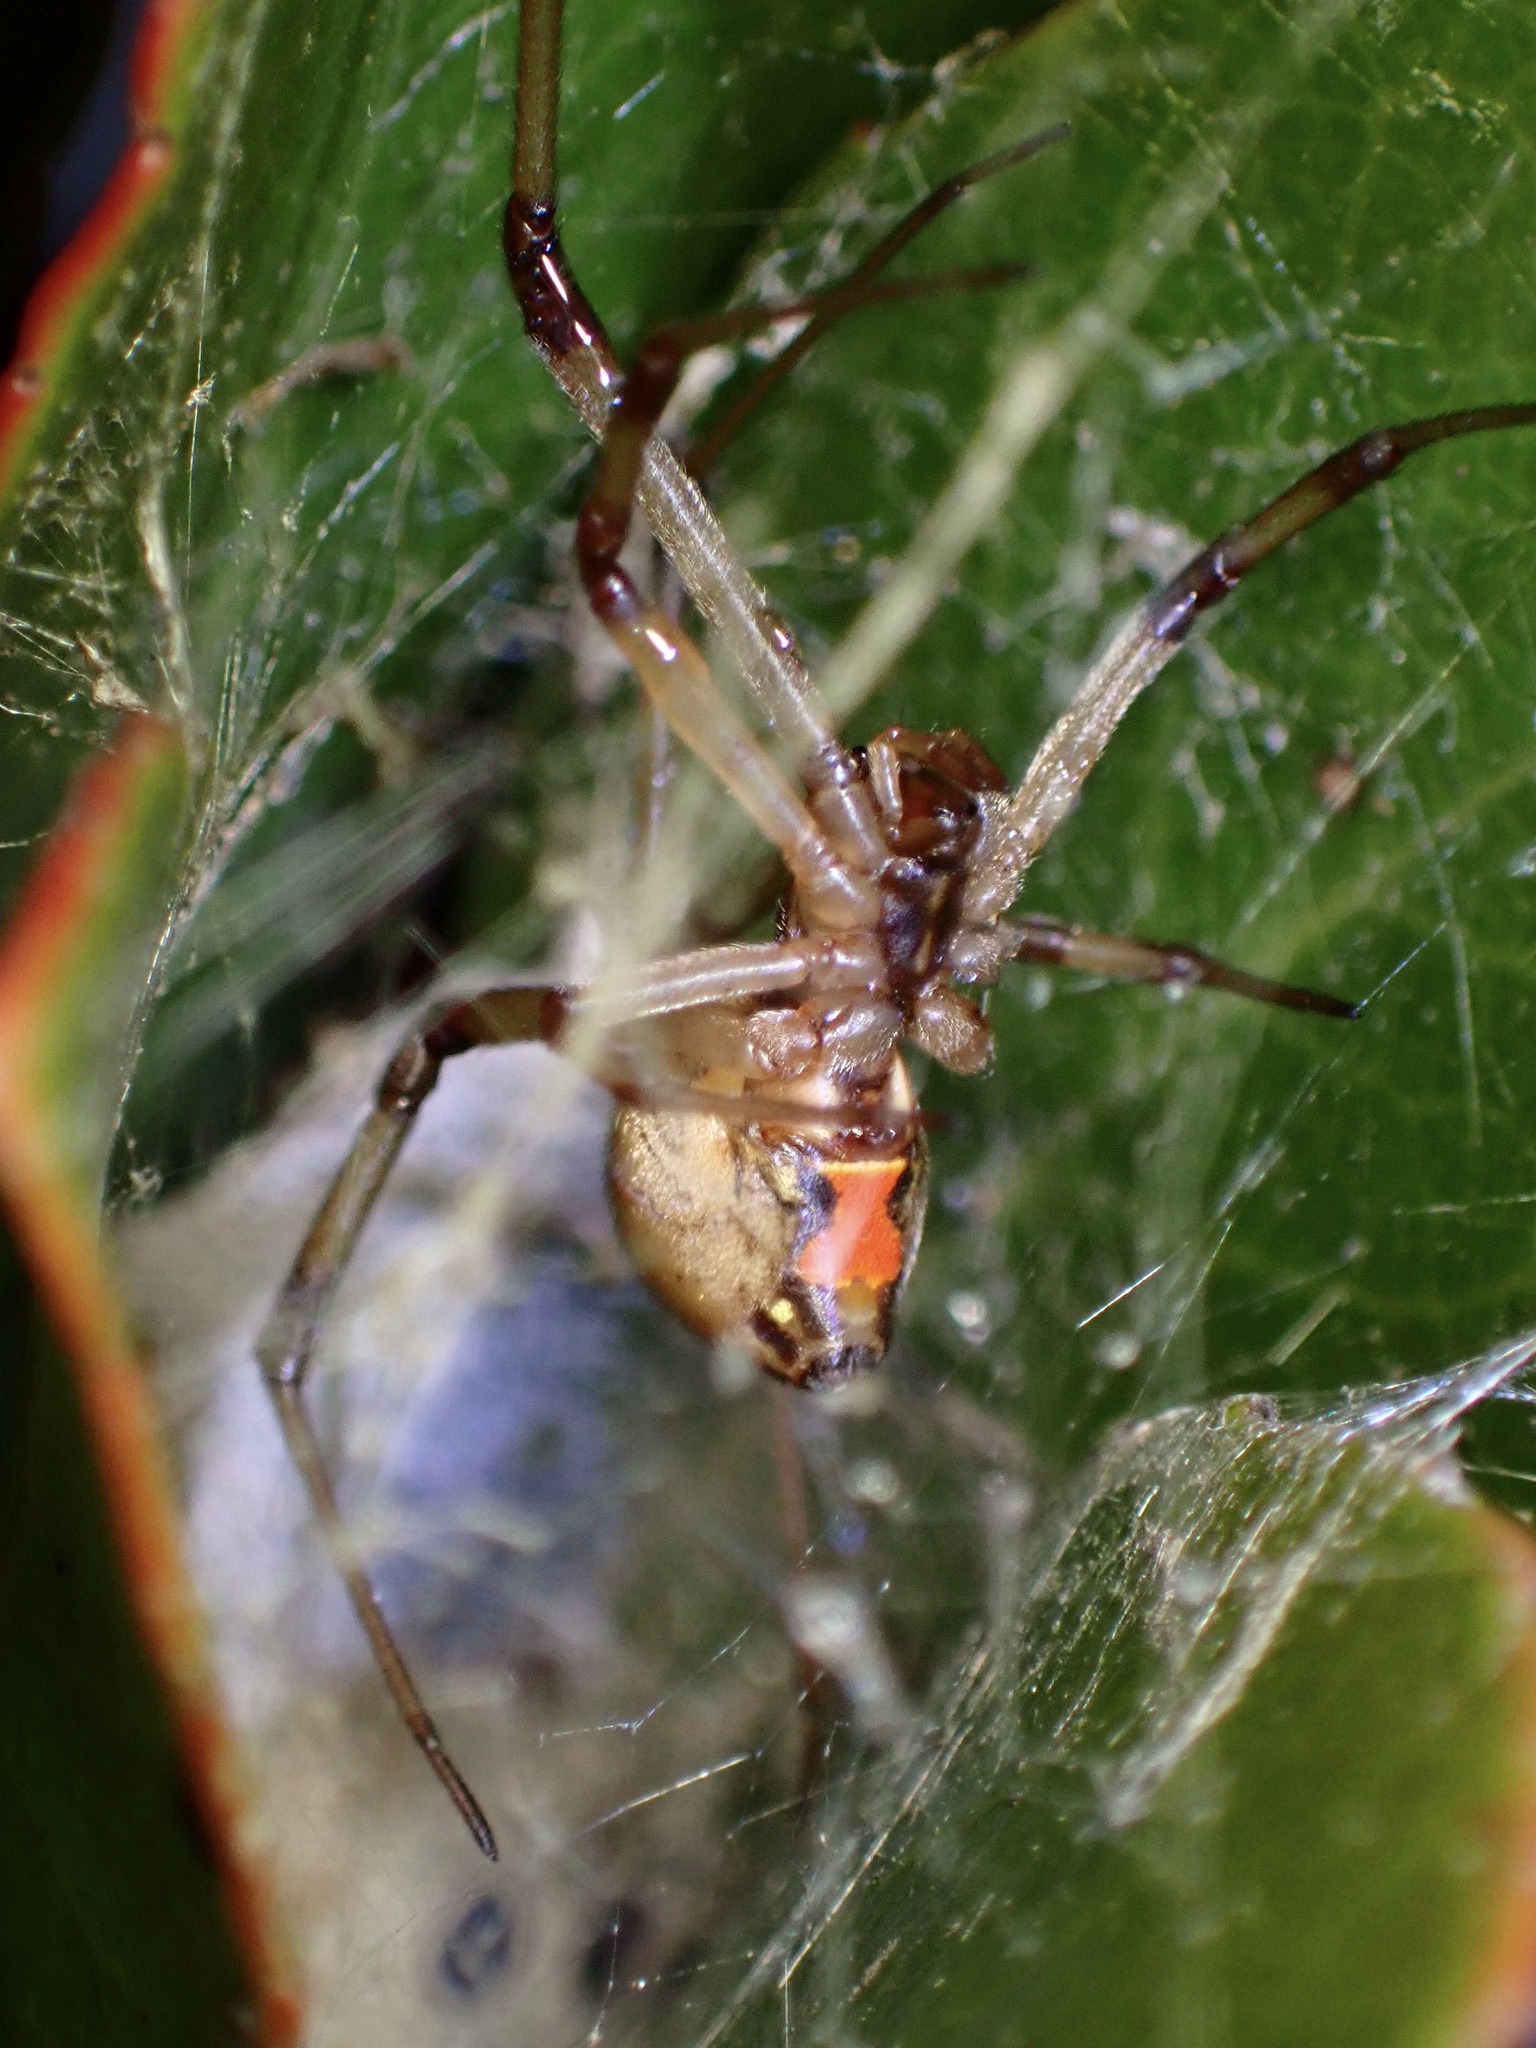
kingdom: Animalia
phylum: Arthropoda
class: Arachnida
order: Araneae
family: Theridiidae
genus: Latrodectus
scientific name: Latrodectus geometricus
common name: Brown widow spider
